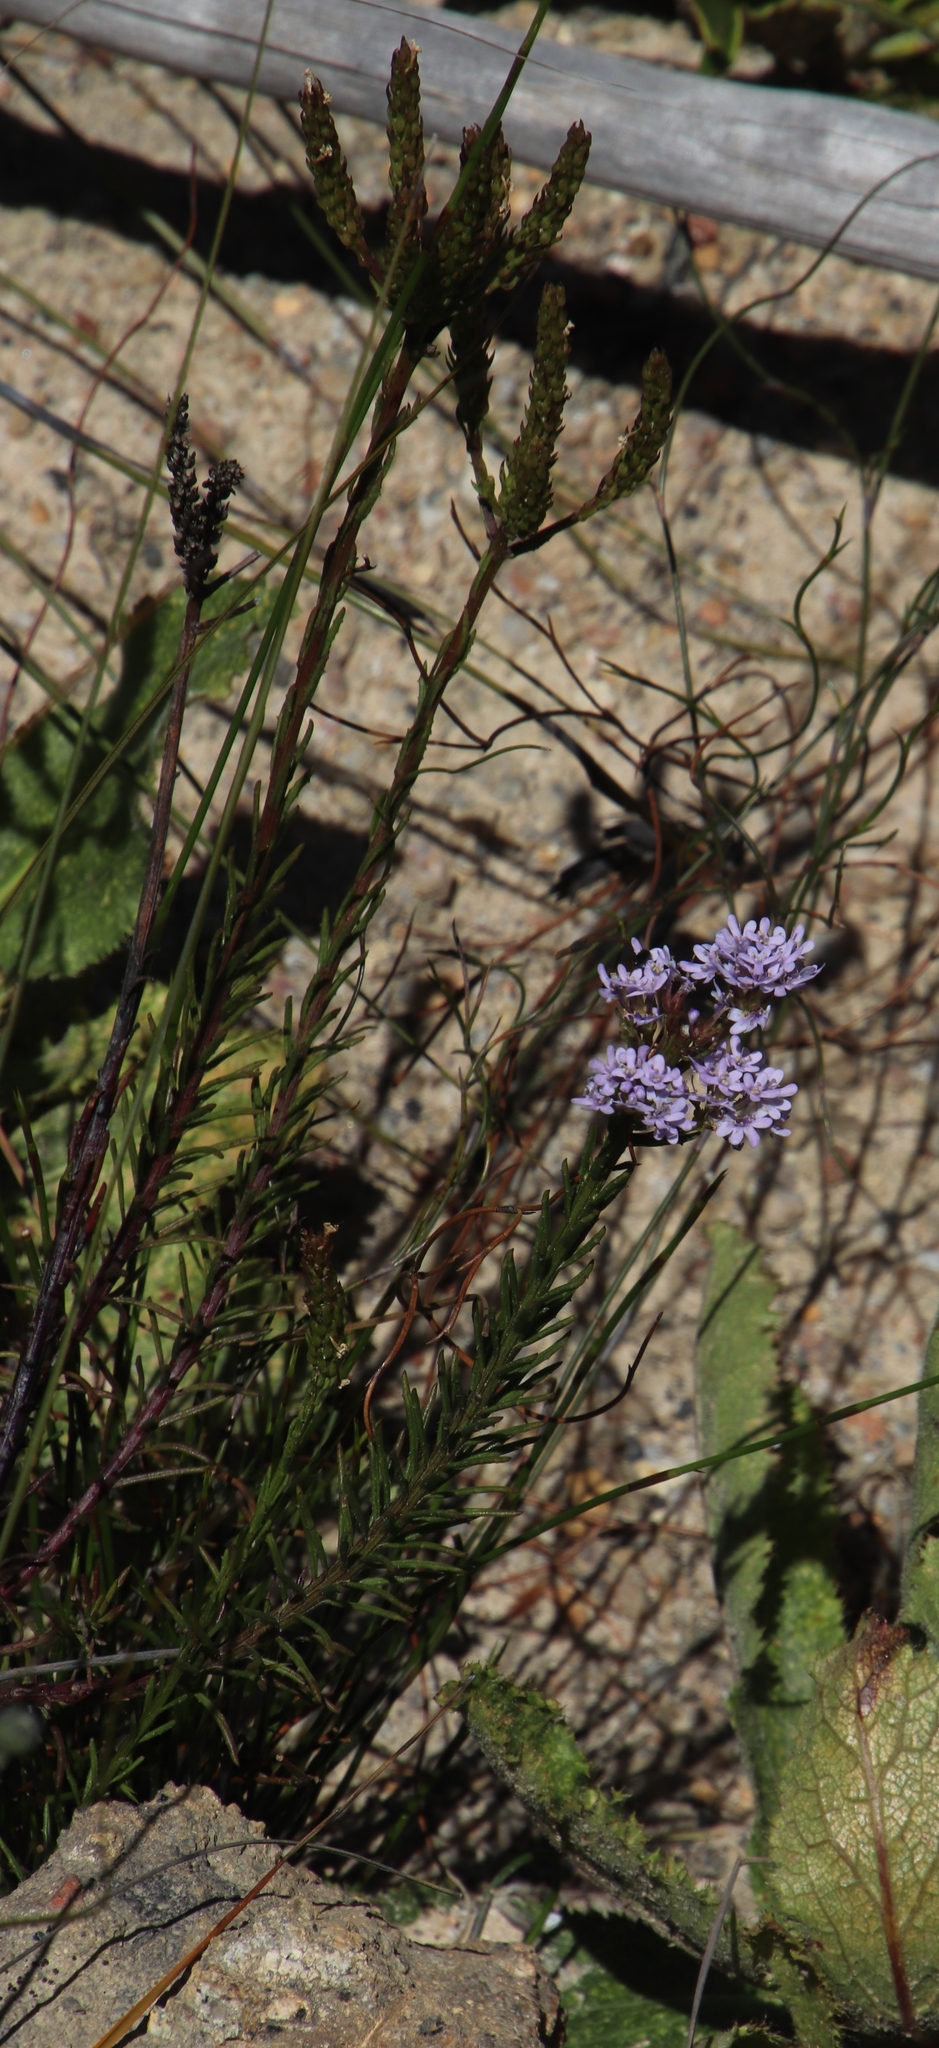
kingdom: Plantae
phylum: Tracheophyta
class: Magnoliopsida
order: Lamiales
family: Scrophulariaceae
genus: Pseudoselago
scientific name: Pseudoselago spuria
